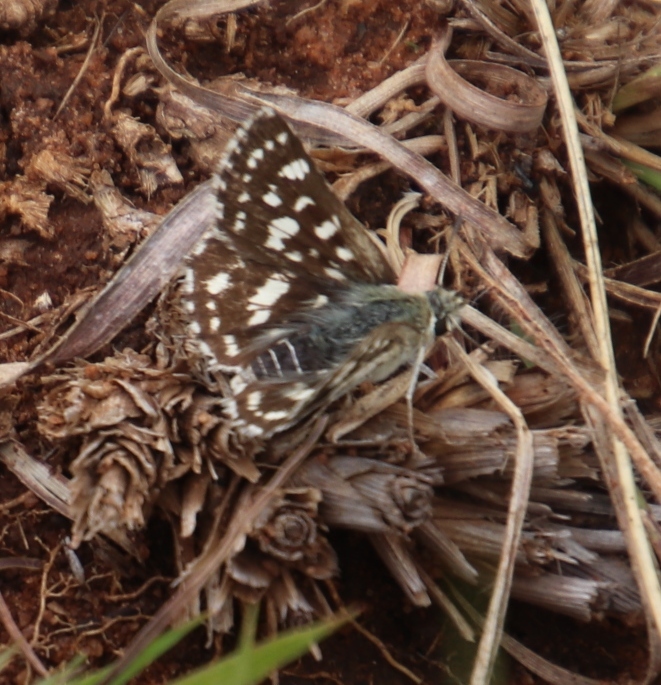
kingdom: Animalia
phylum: Arthropoda
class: Insecta
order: Lepidoptera
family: Hesperiidae
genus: Spialia
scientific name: Spialia diomus
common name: Common sandman
